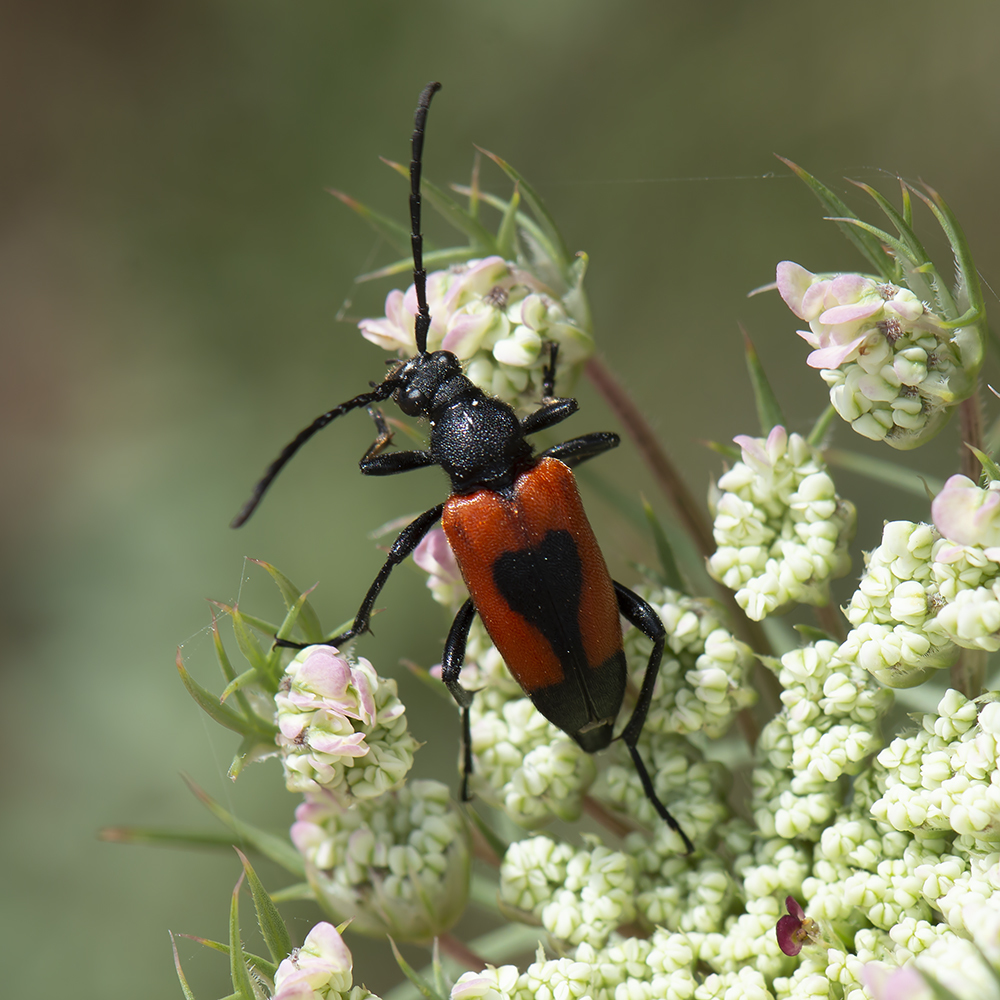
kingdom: Animalia
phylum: Arthropoda
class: Insecta
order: Coleoptera
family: Cerambycidae
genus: Stictoleptura
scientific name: Stictoleptura cordigera
